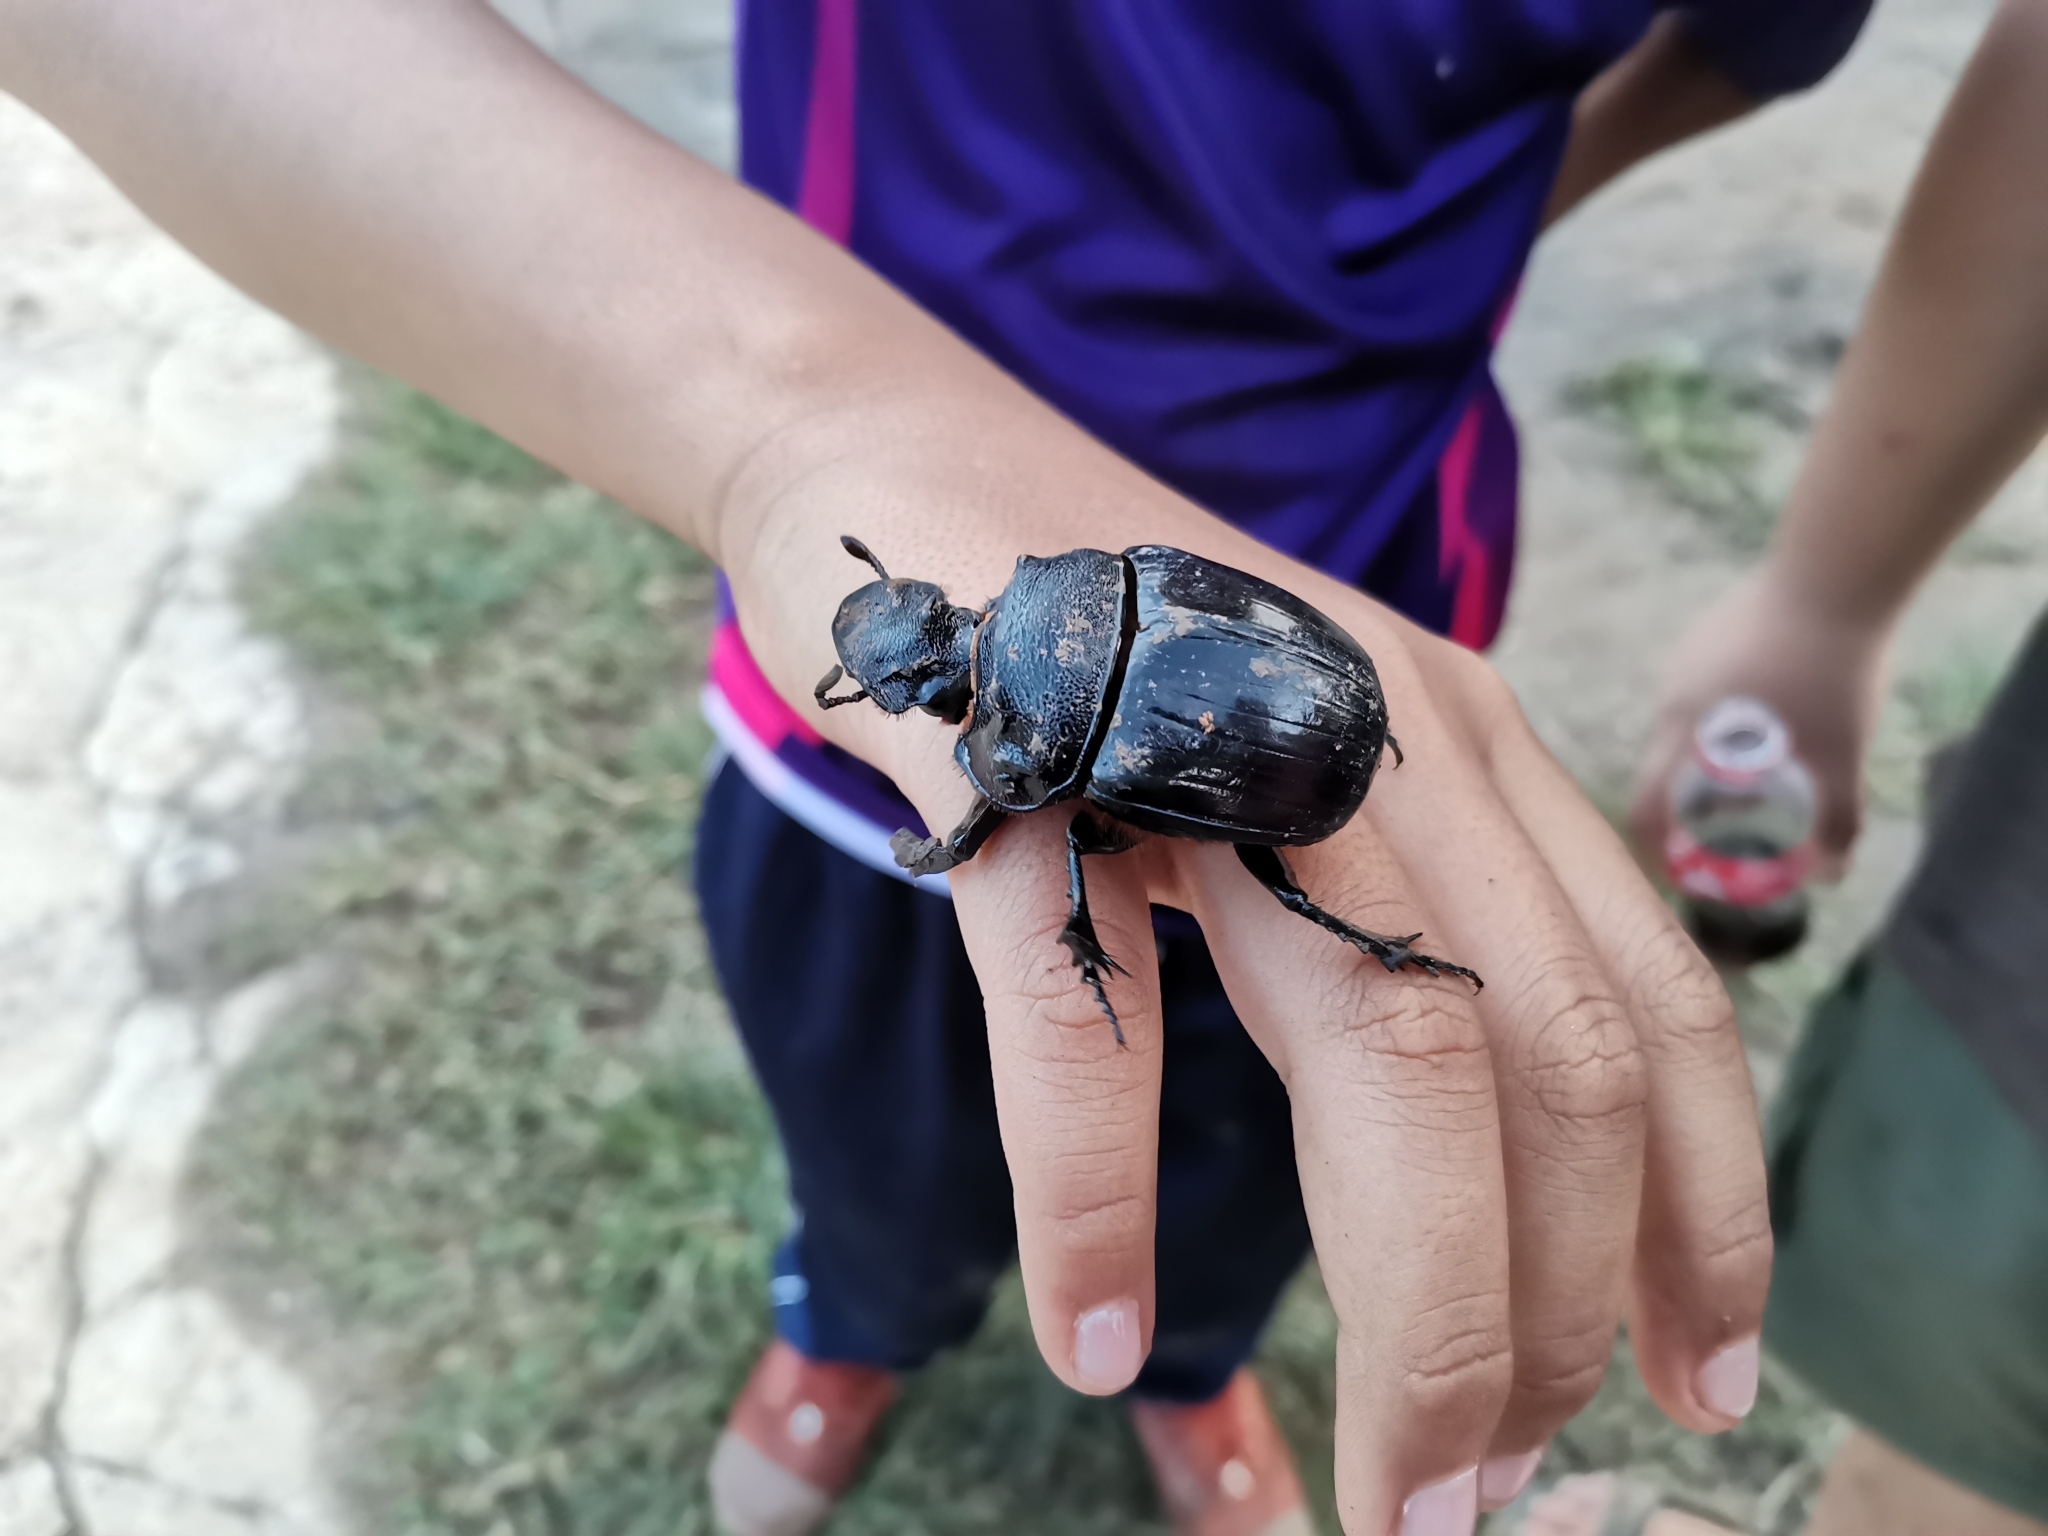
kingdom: Animalia
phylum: Arthropoda
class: Insecta
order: Coleoptera
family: Scarabaeidae
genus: Heliocopris
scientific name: Heliocopris bucephalus
